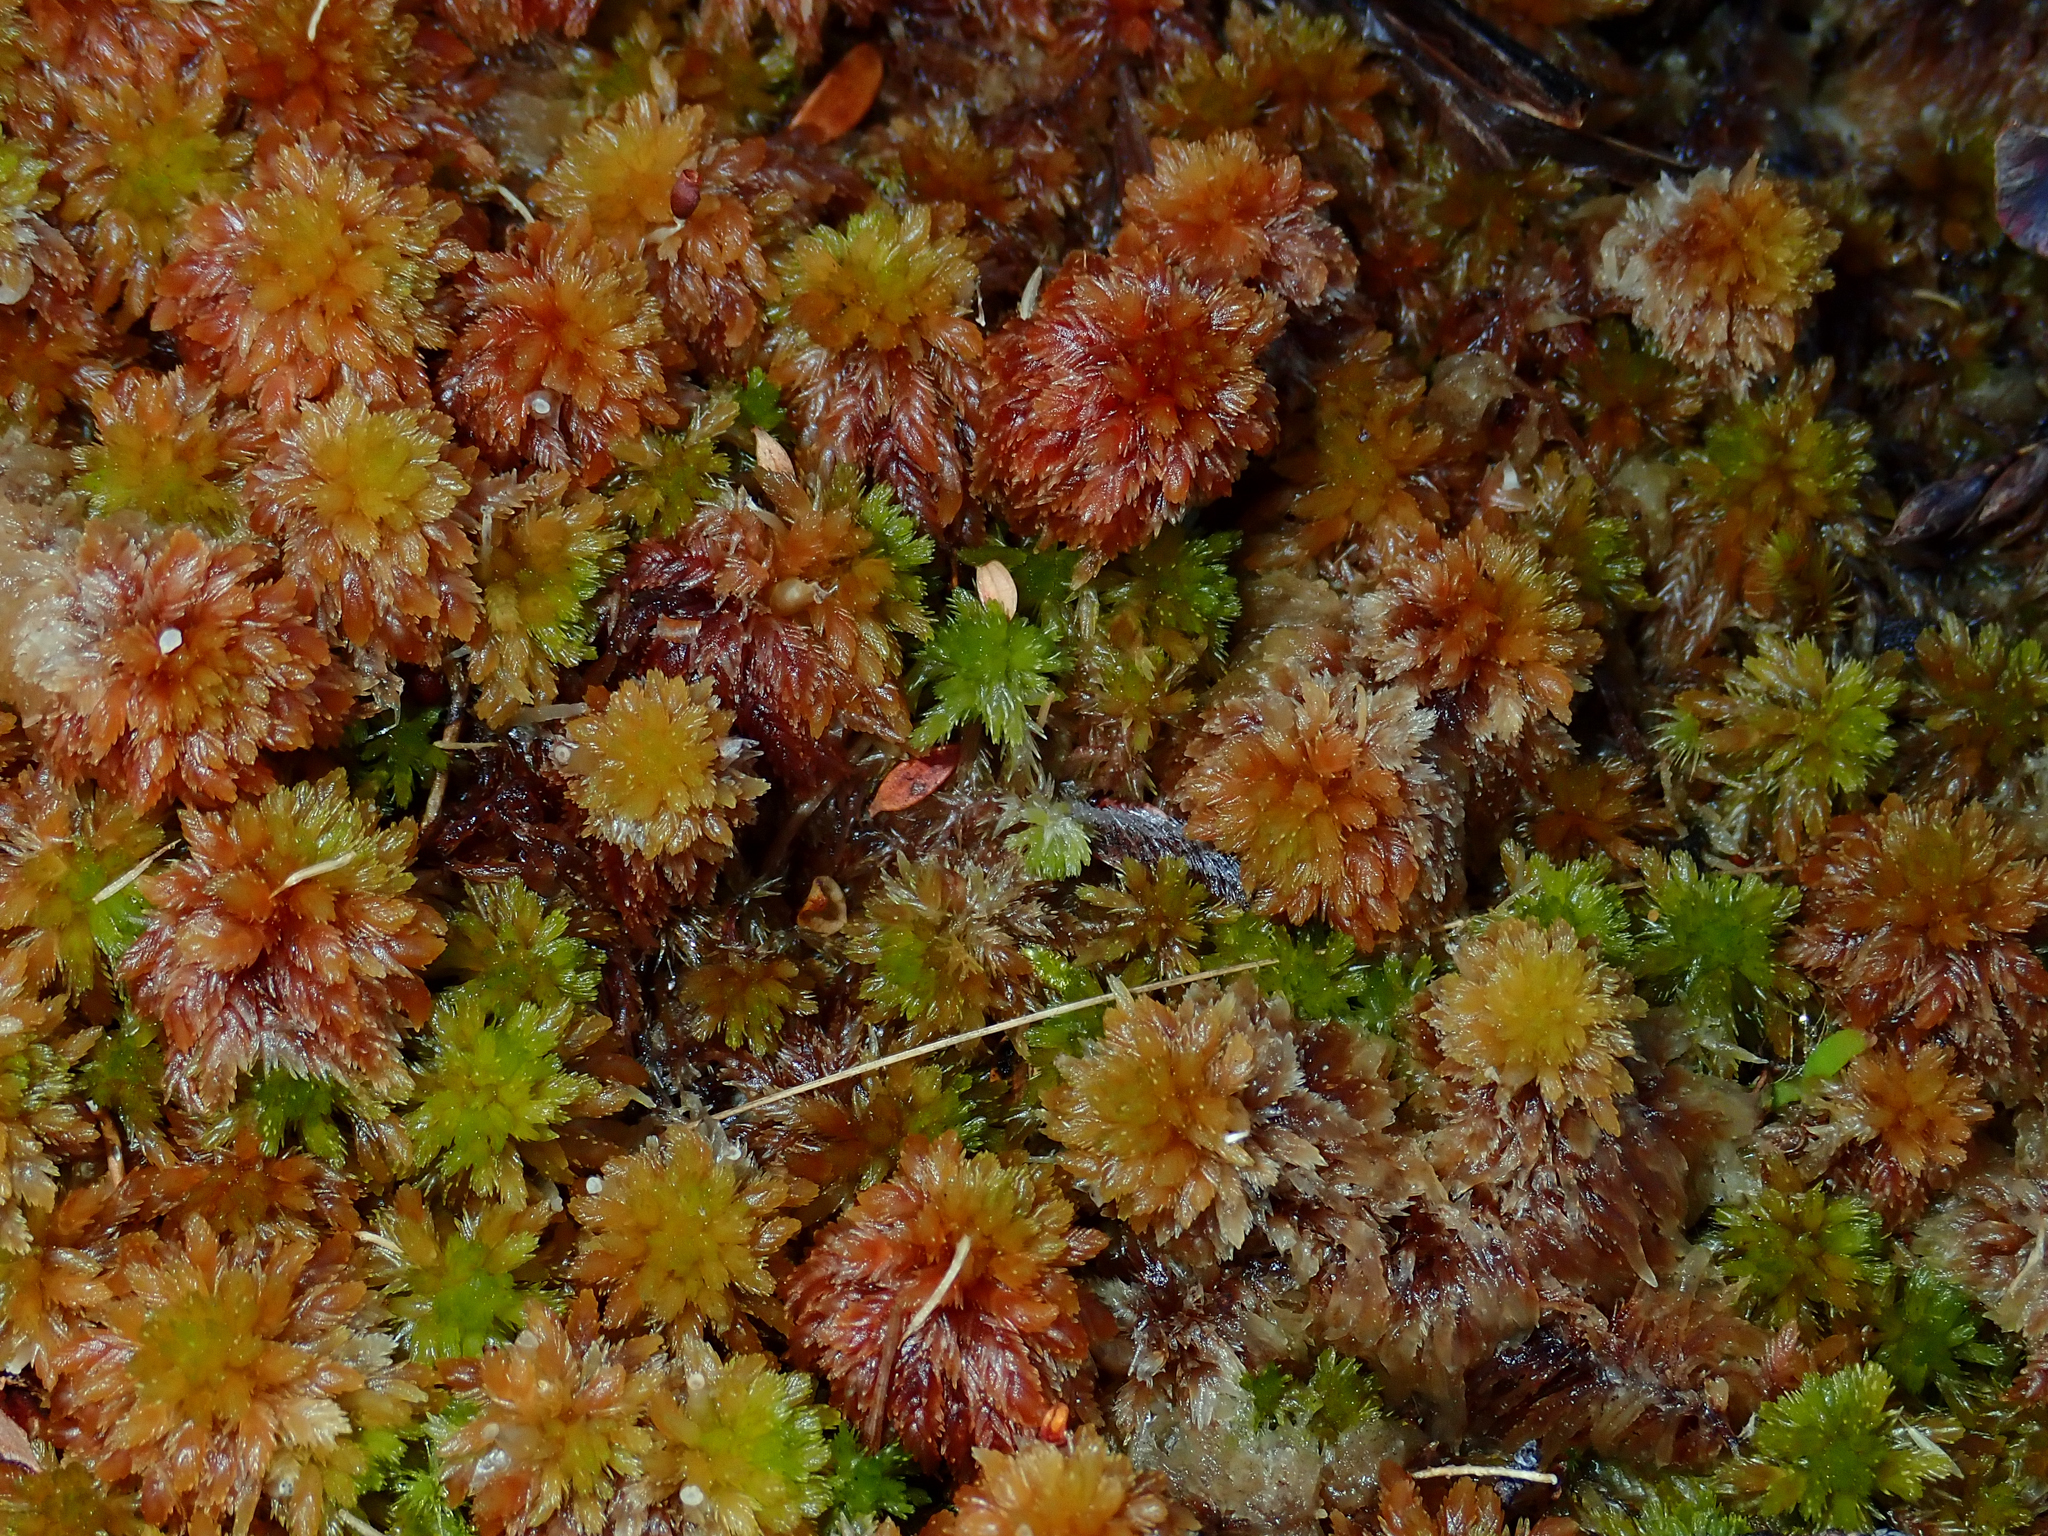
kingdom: Plantae
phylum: Bryophyta
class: Sphagnopsida
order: Sphagnales
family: Sphagnaceae
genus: Sphagnum
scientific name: Sphagnum subnitens
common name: Lustrous bog-moss
